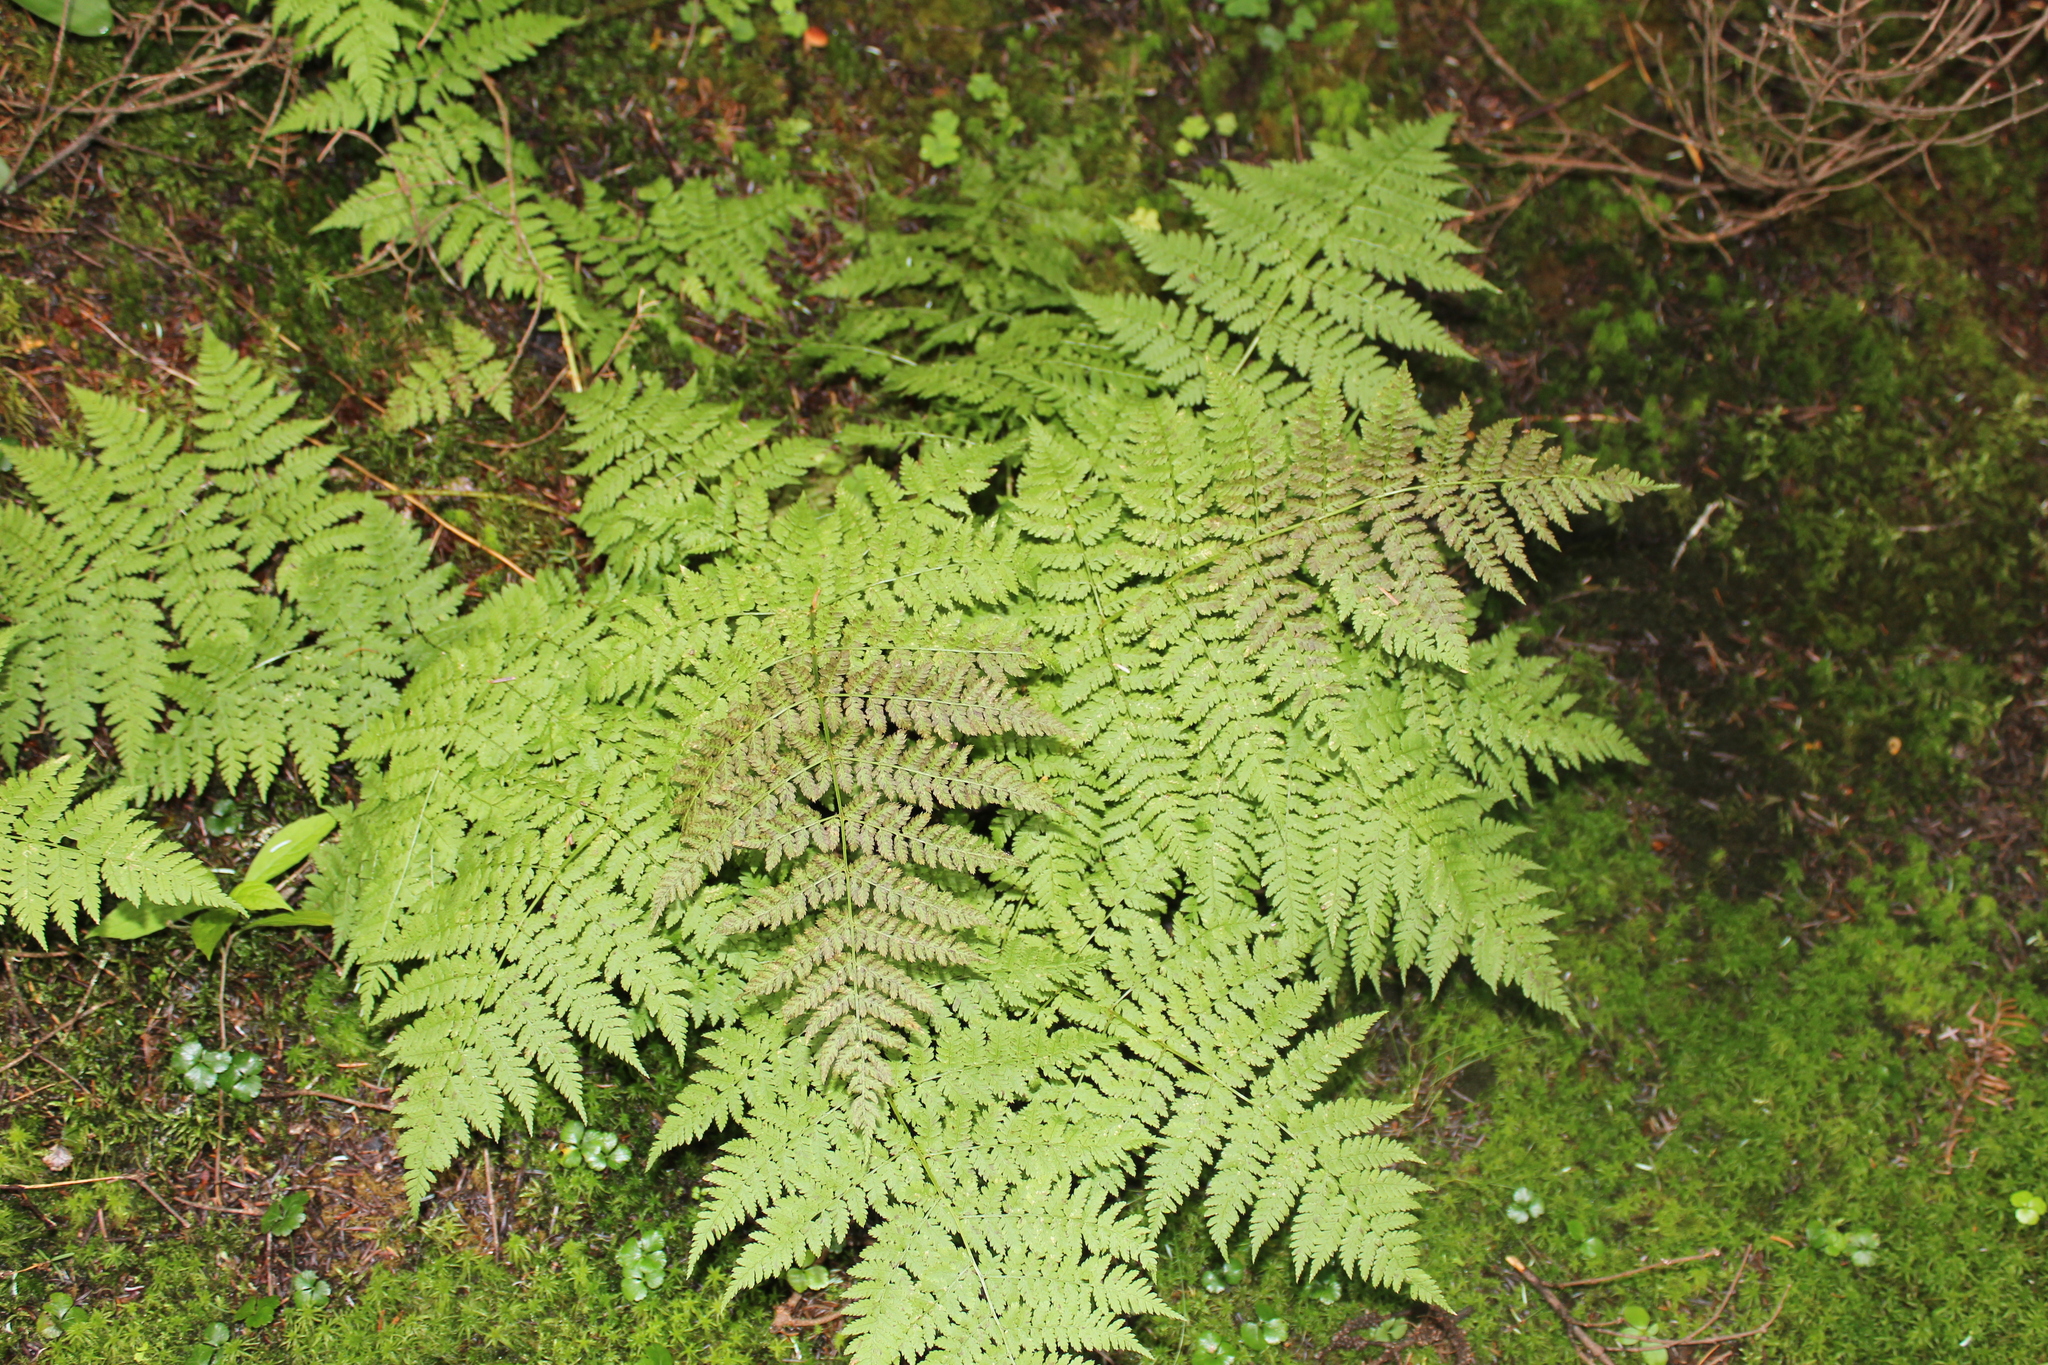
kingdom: Plantae
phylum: Tracheophyta
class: Polypodiopsida
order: Polypodiales
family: Dryopteridaceae
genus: Dryopteris
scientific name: Dryopteris campyloptera
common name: Mountain wood fern
